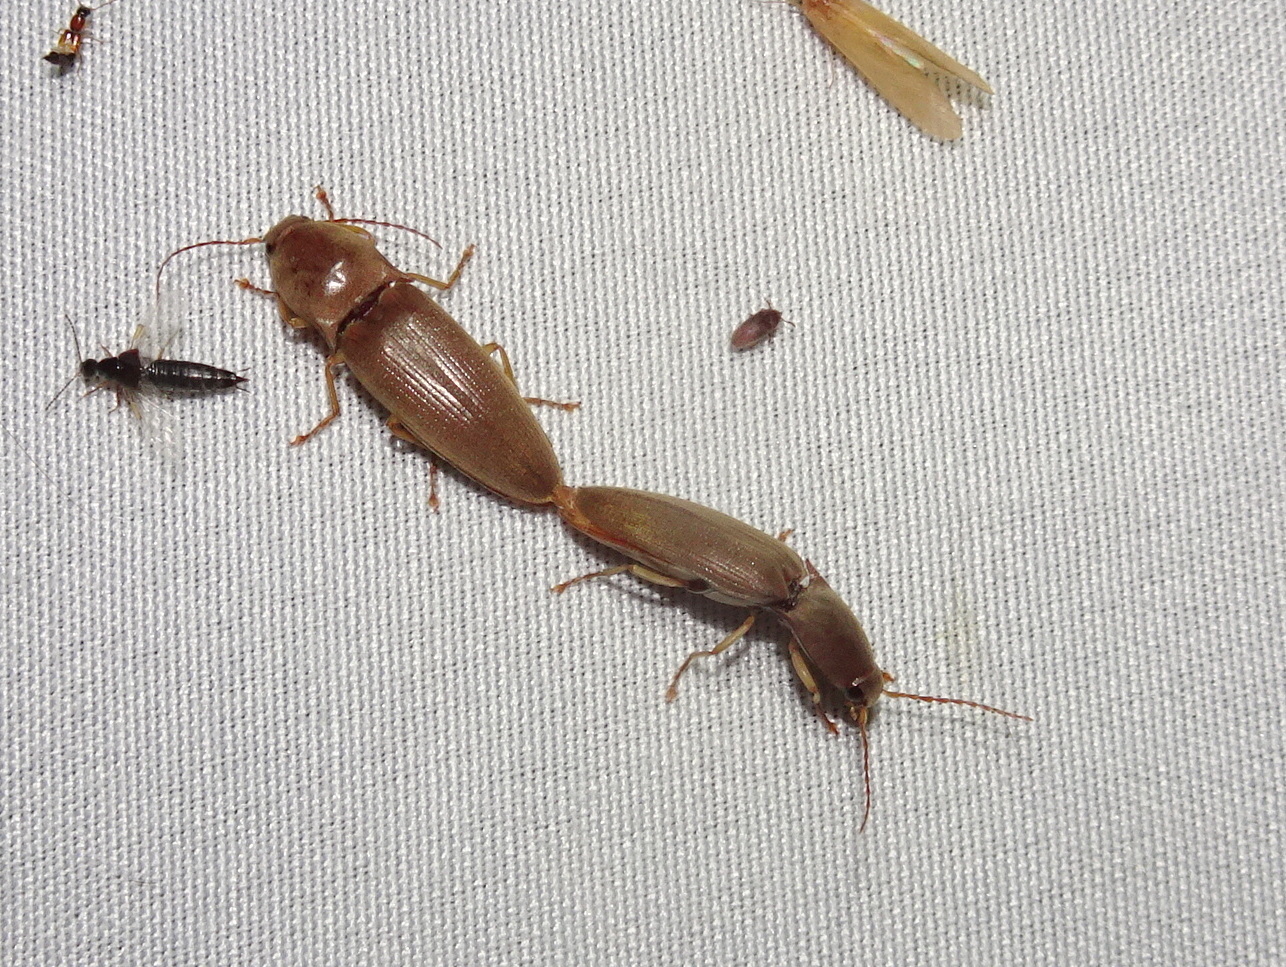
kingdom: Animalia
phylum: Arthropoda
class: Insecta
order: Coleoptera
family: Elateridae
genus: Monocrepidius
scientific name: Monocrepidius lividus
